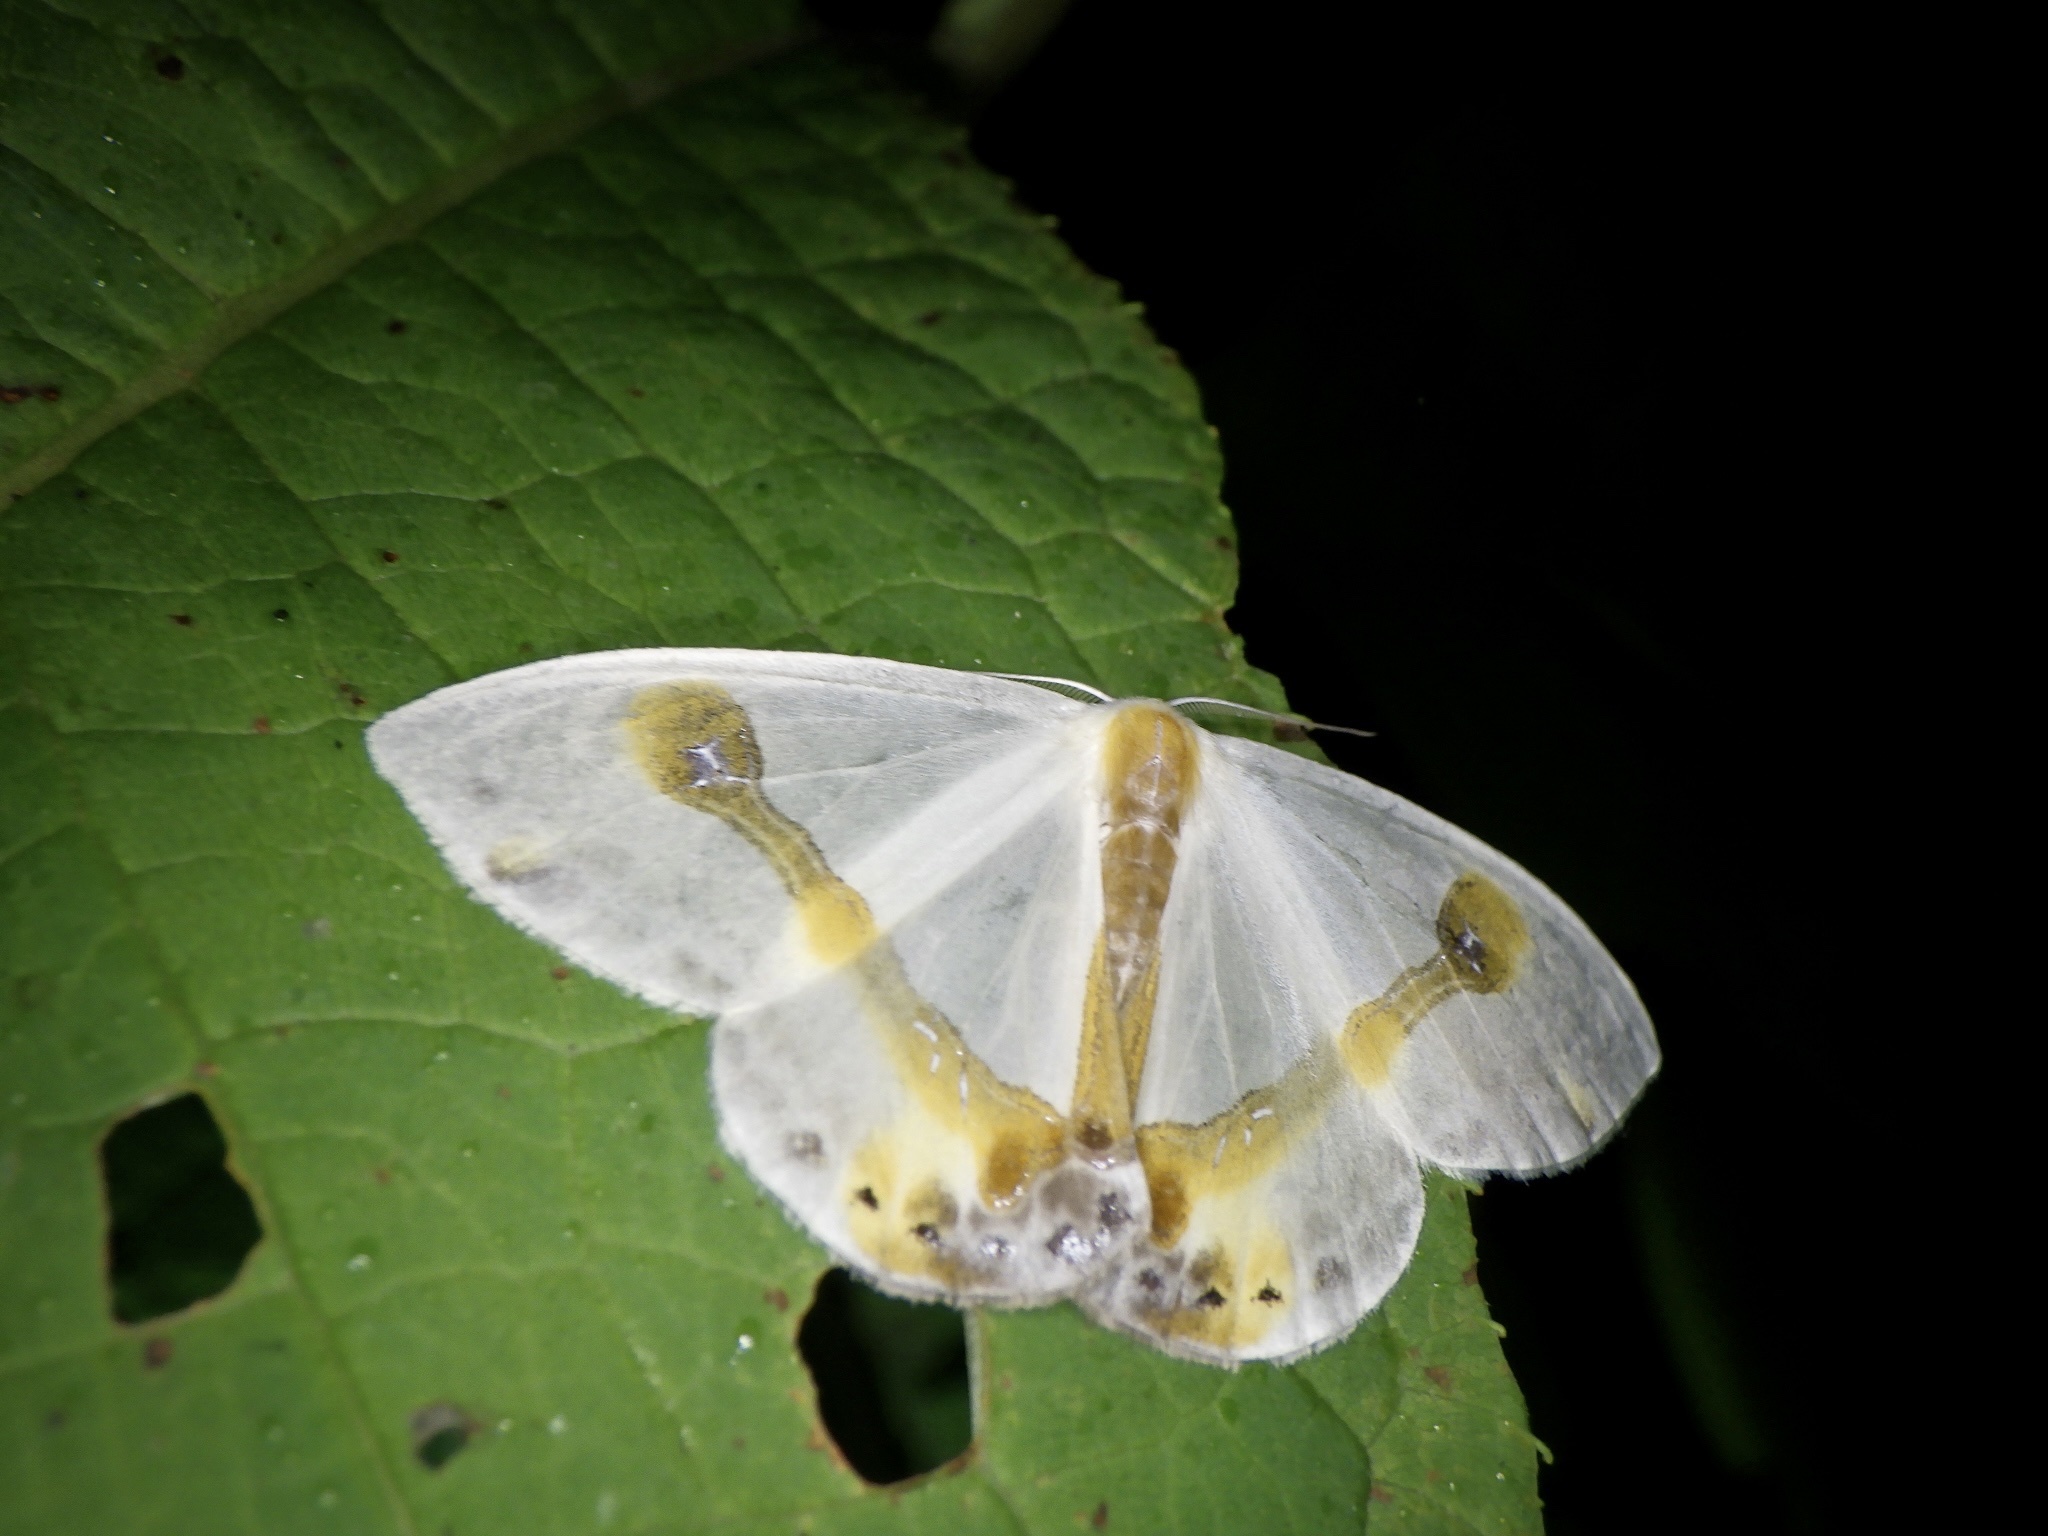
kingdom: Animalia
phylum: Arthropoda
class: Insecta
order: Lepidoptera
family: Drepanidae
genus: Macrocilix
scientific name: Macrocilix mysticata
